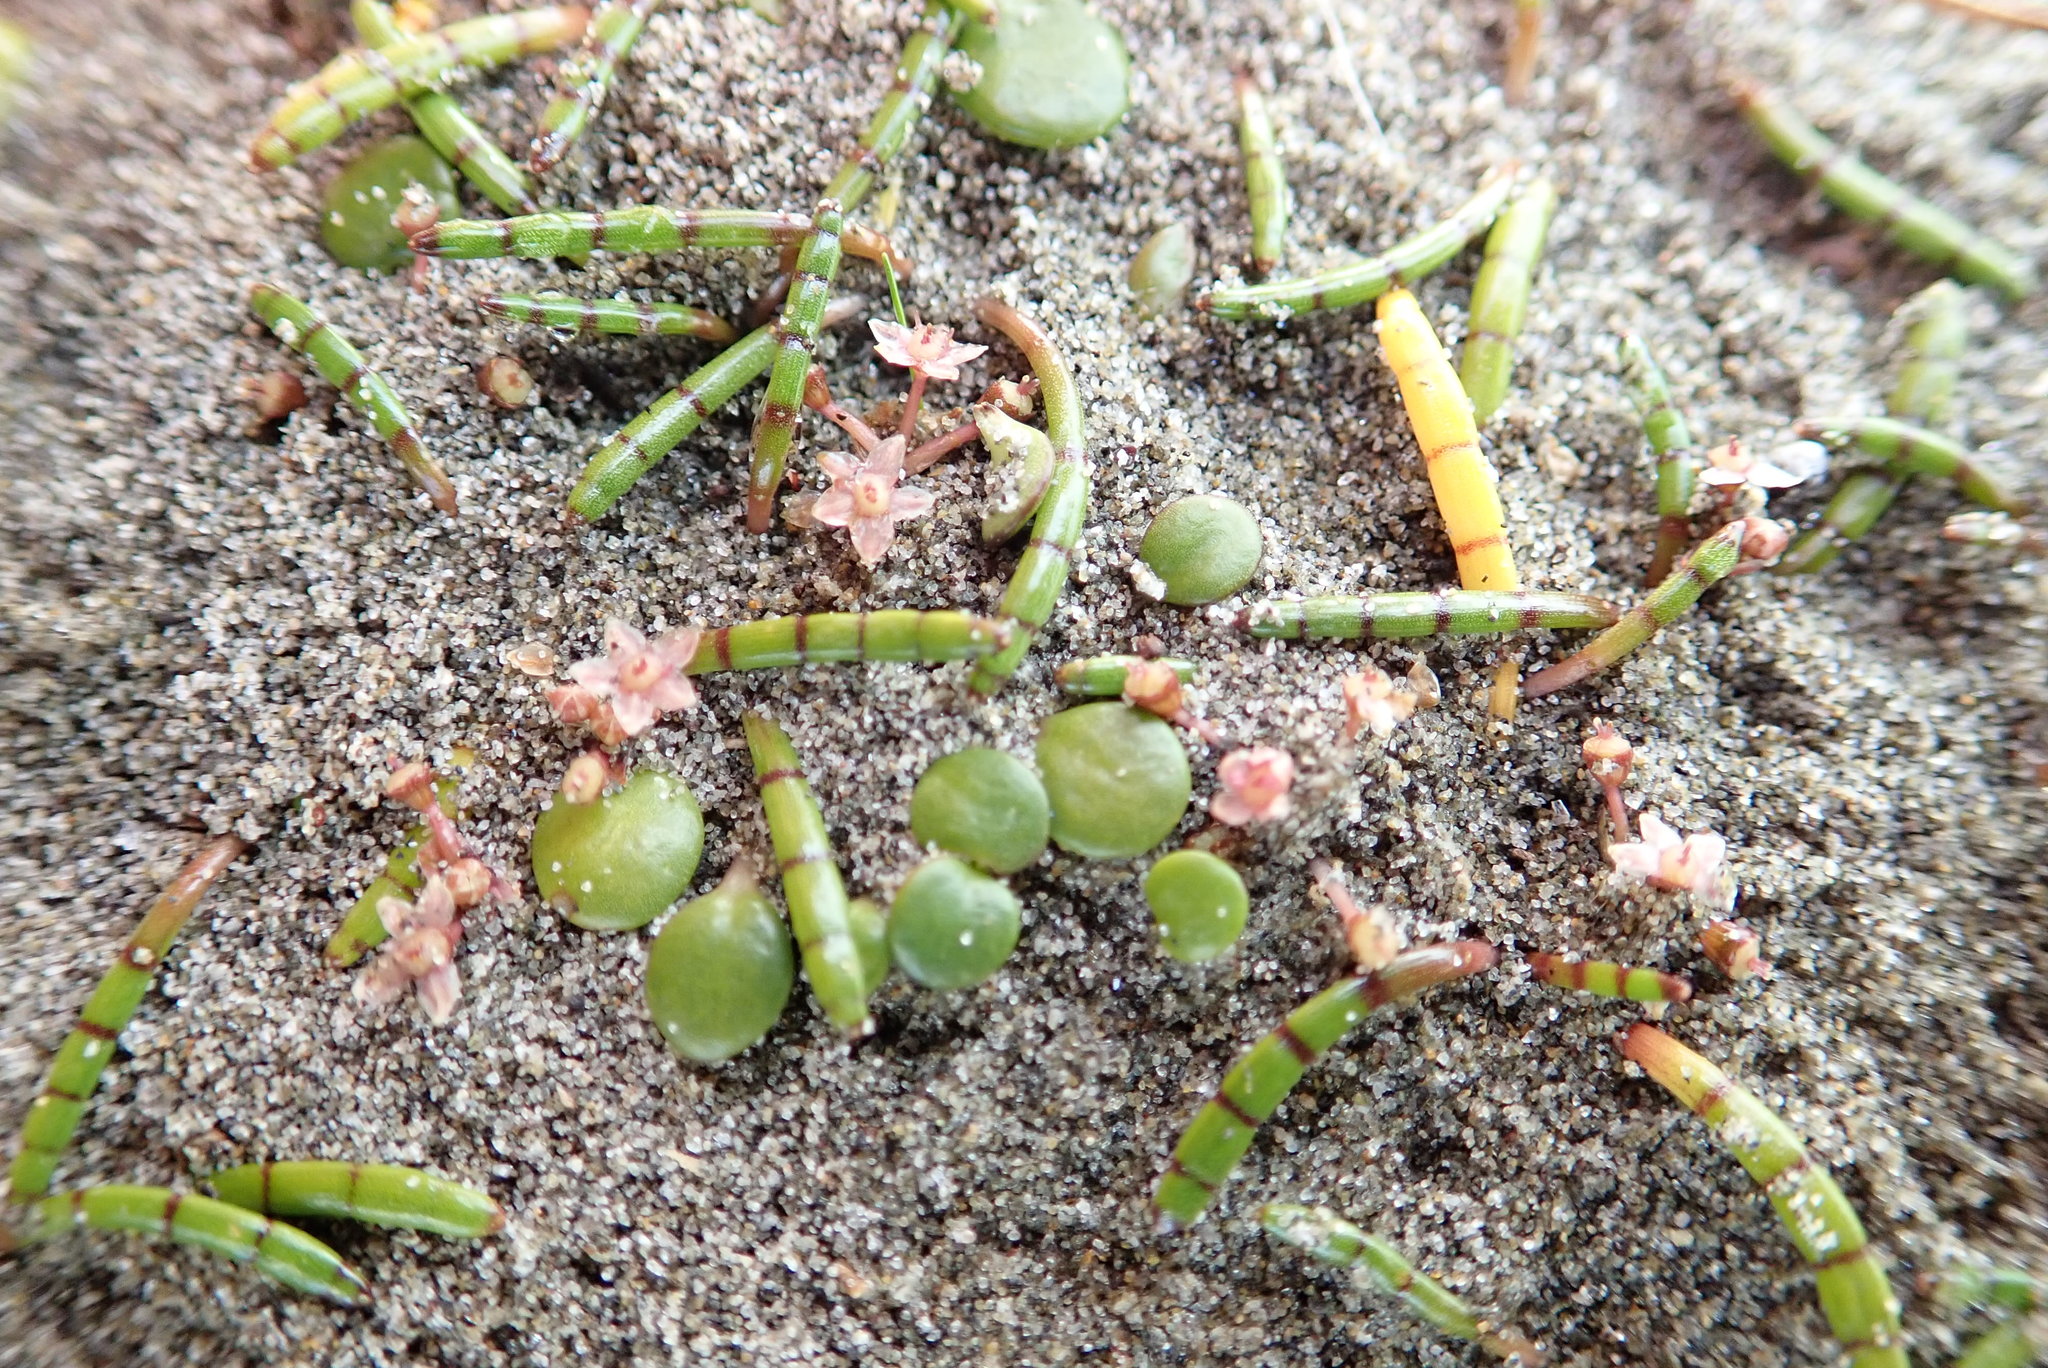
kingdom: Plantae
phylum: Tracheophyta
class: Magnoliopsida
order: Apiales
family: Apiaceae
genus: Lilaeopsis
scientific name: Lilaeopsis novae-zelandiae
